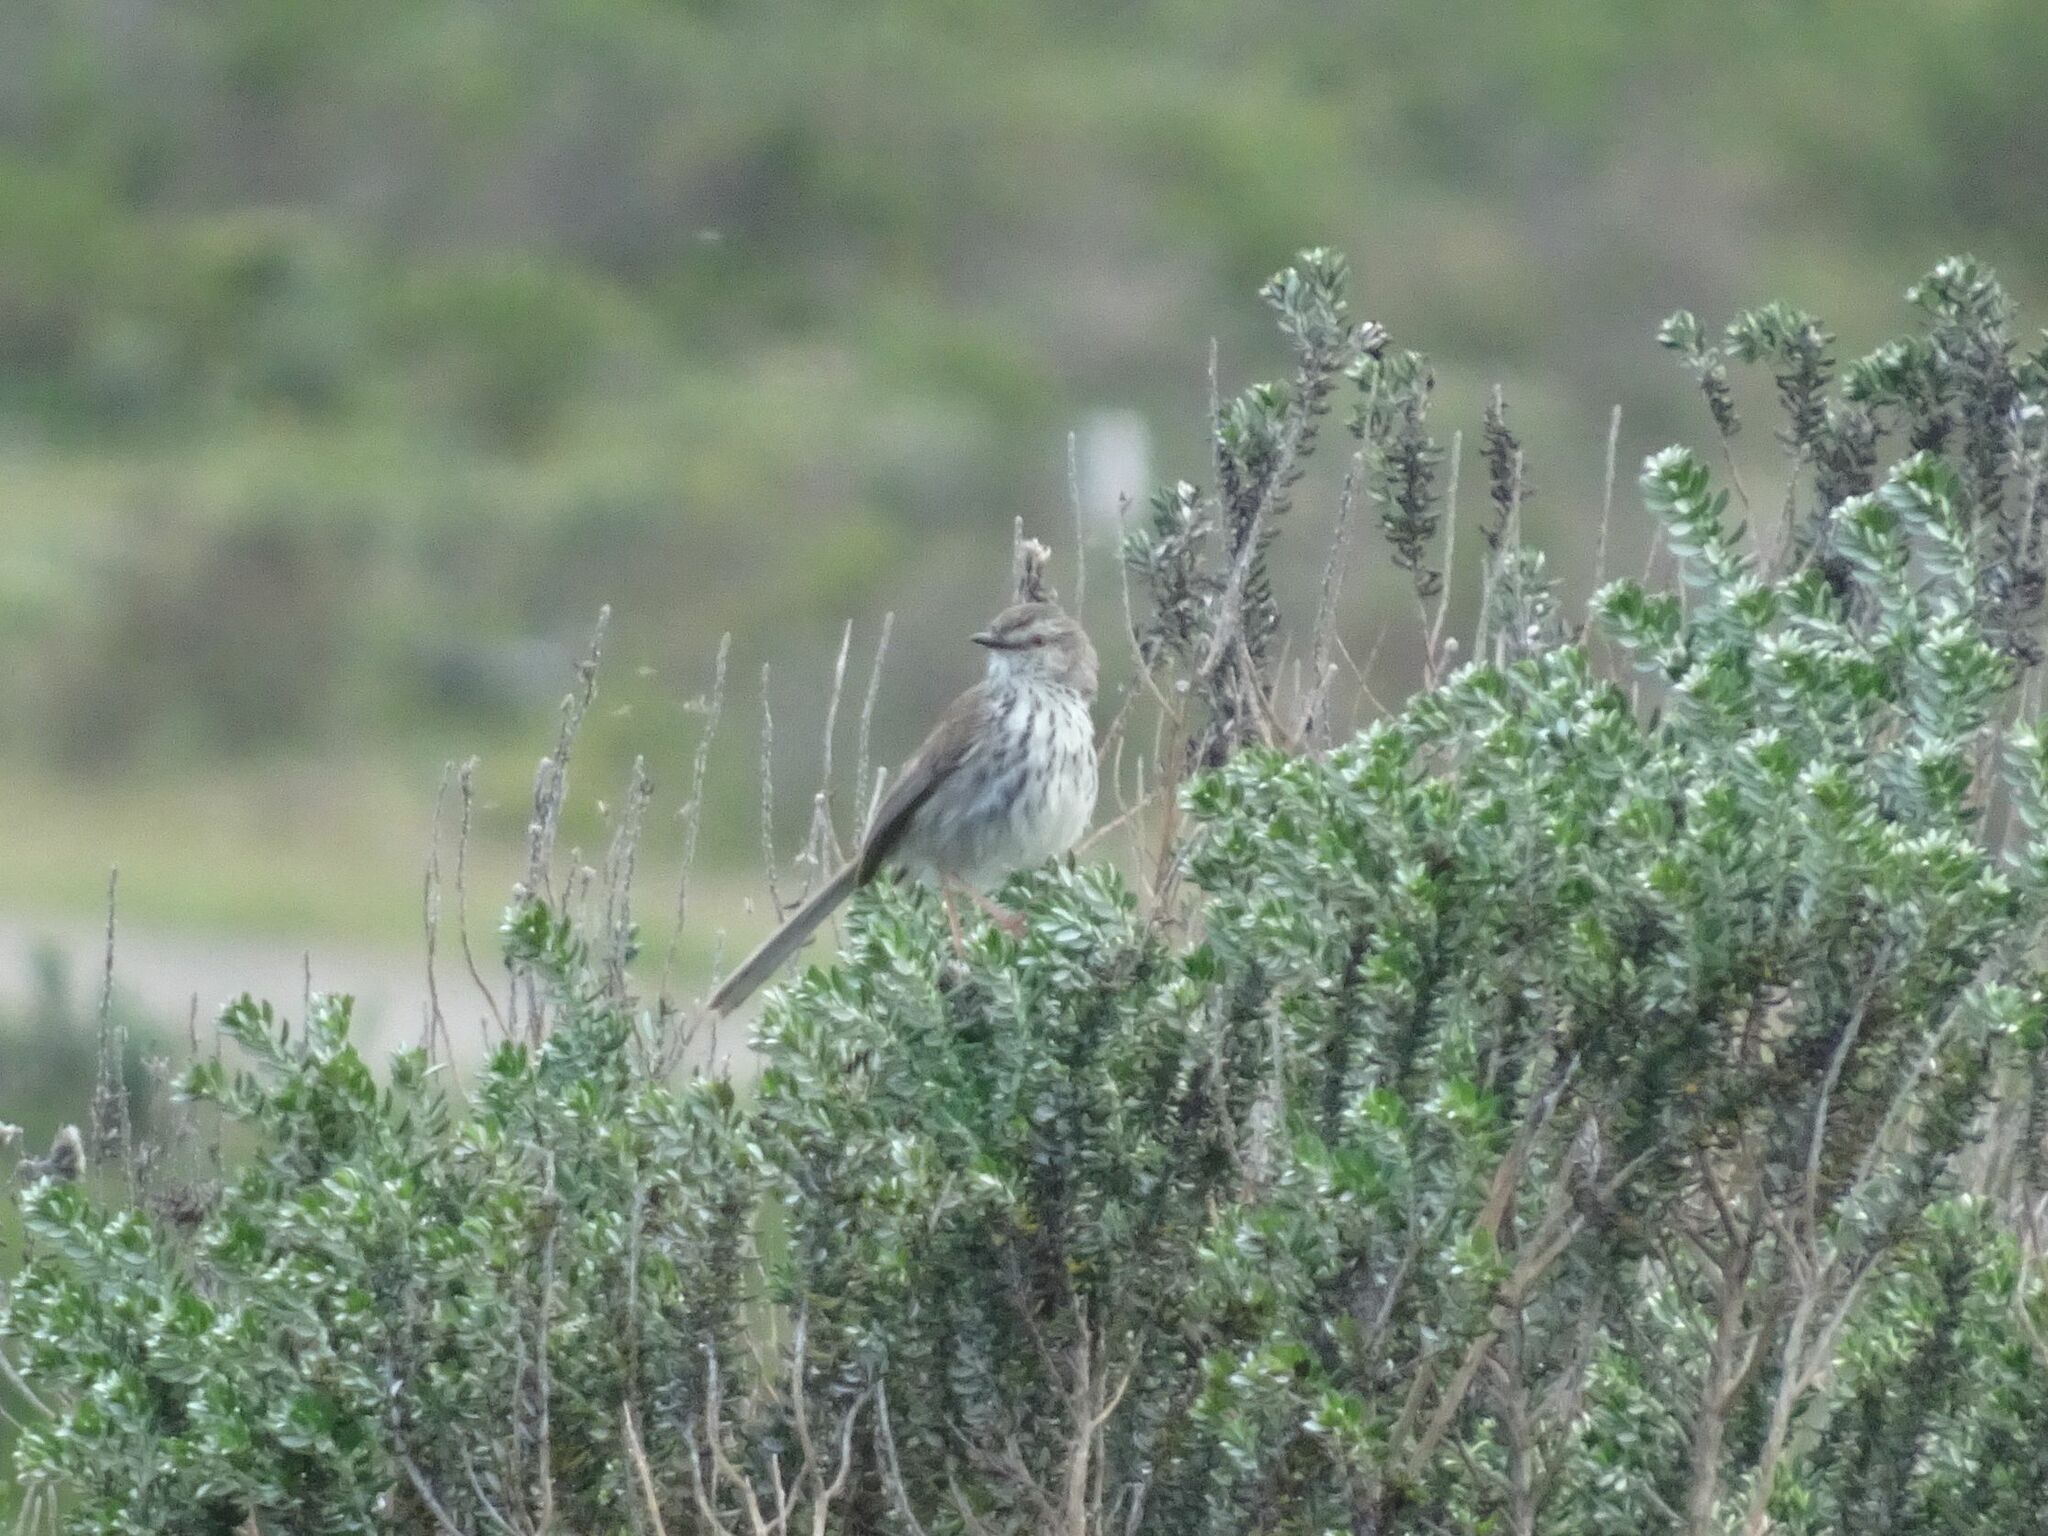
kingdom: Animalia
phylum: Chordata
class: Aves
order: Passeriformes
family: Cisticolidae
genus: Prinia
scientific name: Prinia maculosa
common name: Karoo prinia
